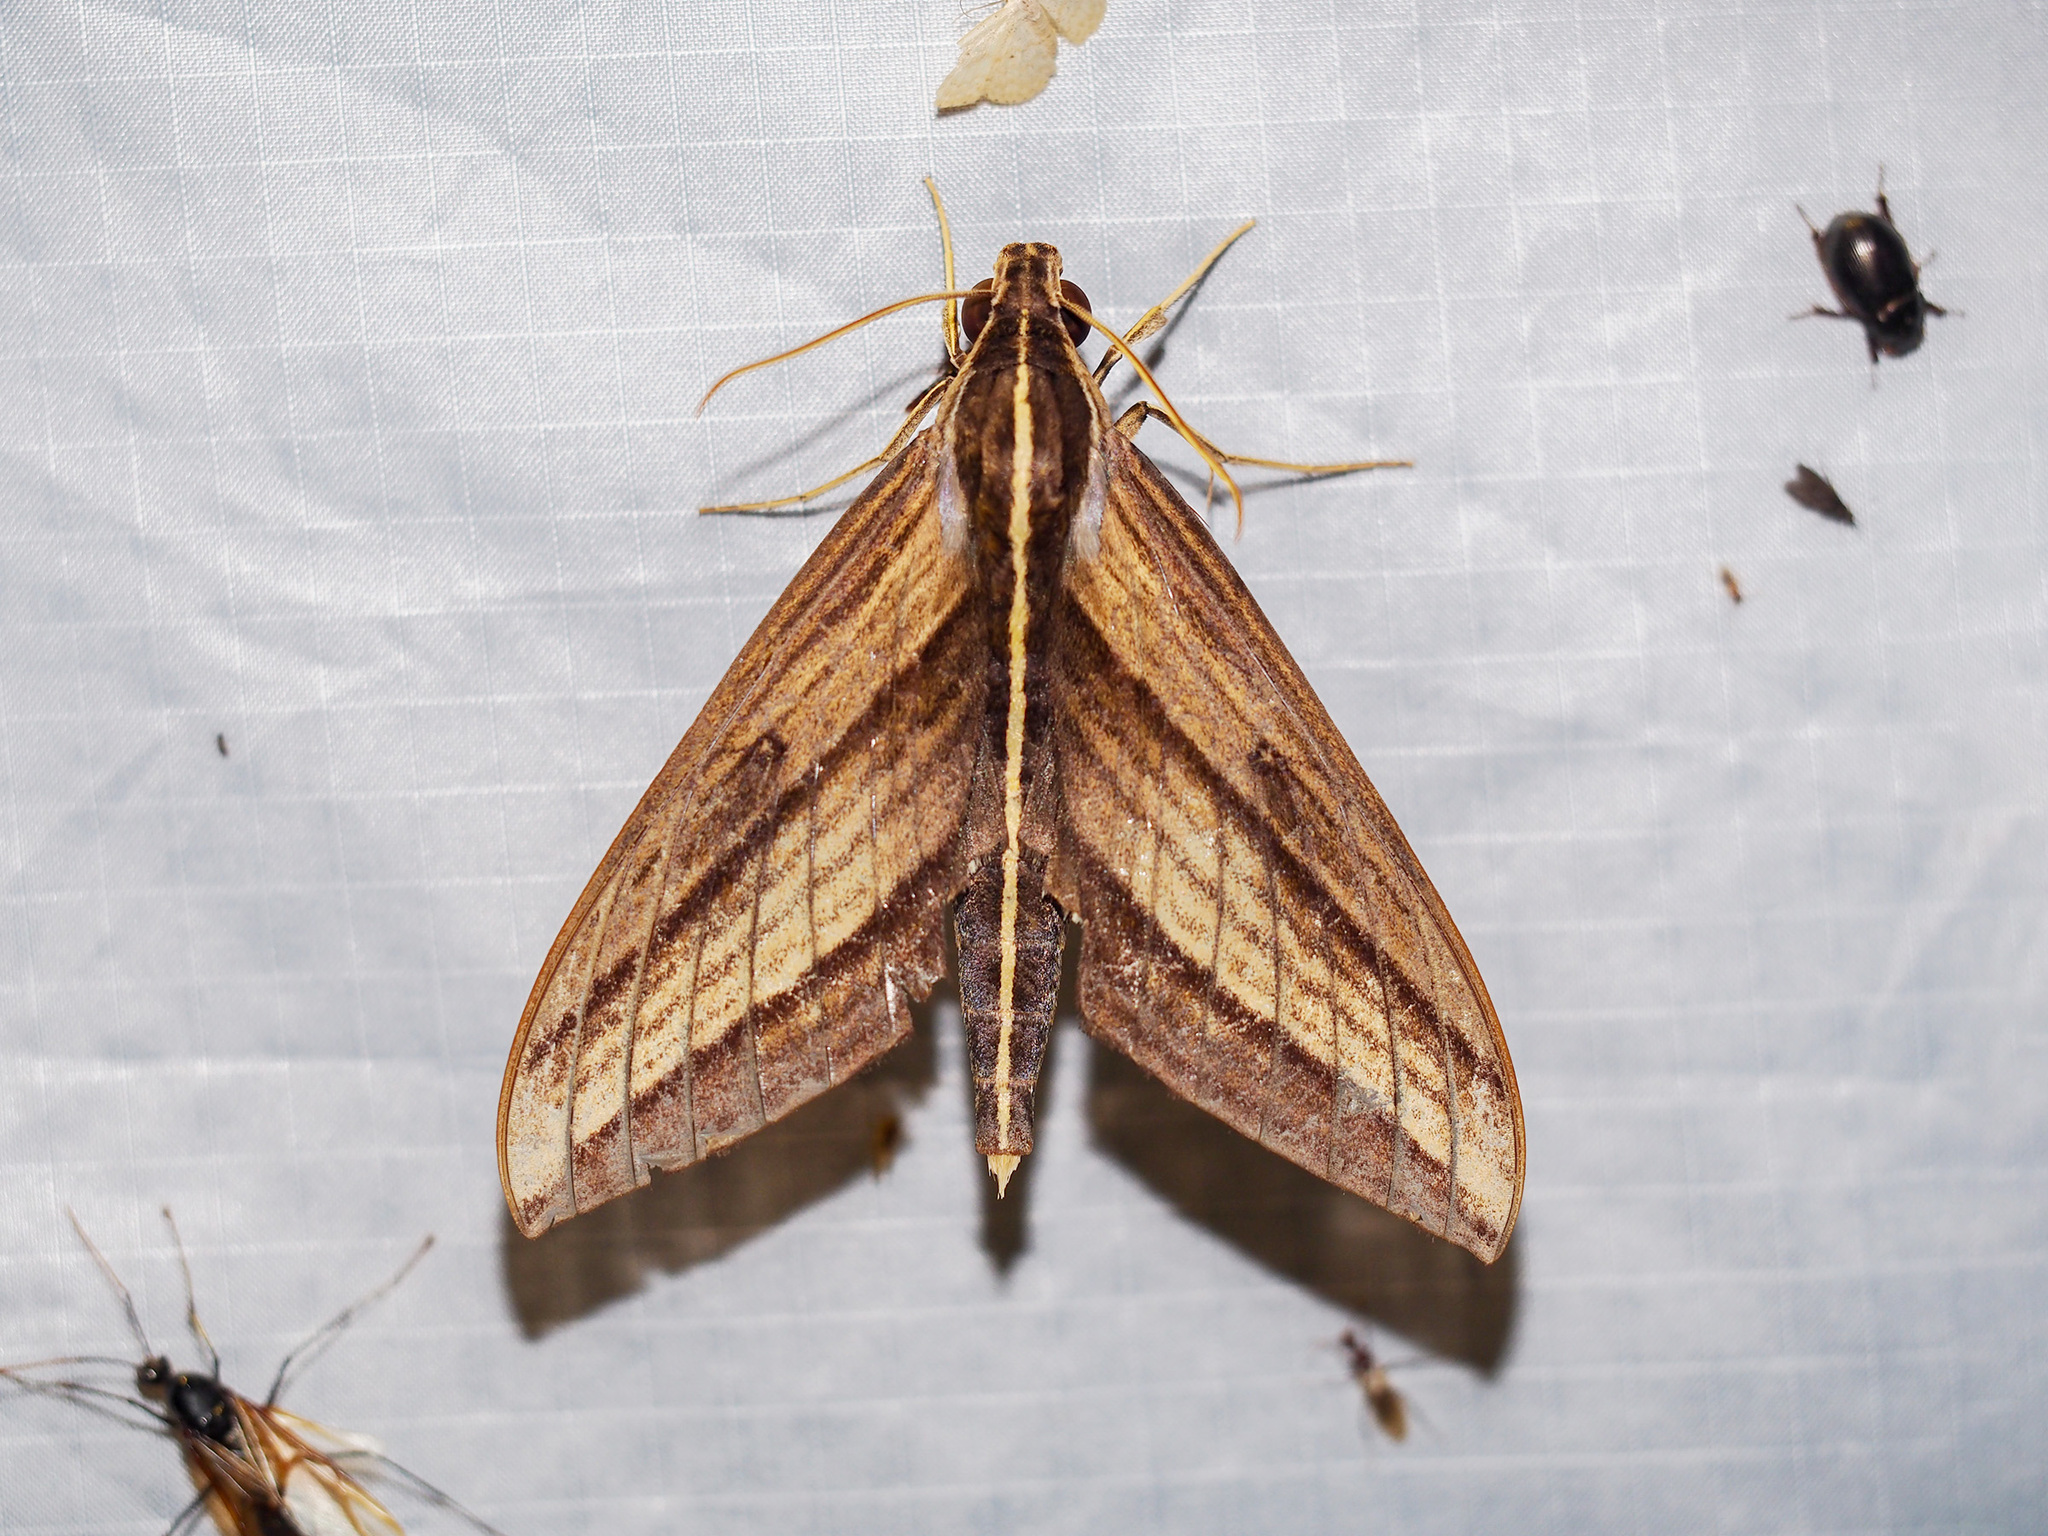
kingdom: Animalia
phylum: Arthropoda
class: Insecta
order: Lepidoptera
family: Sphingidae
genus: Elibia
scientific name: Elibia dolichus
